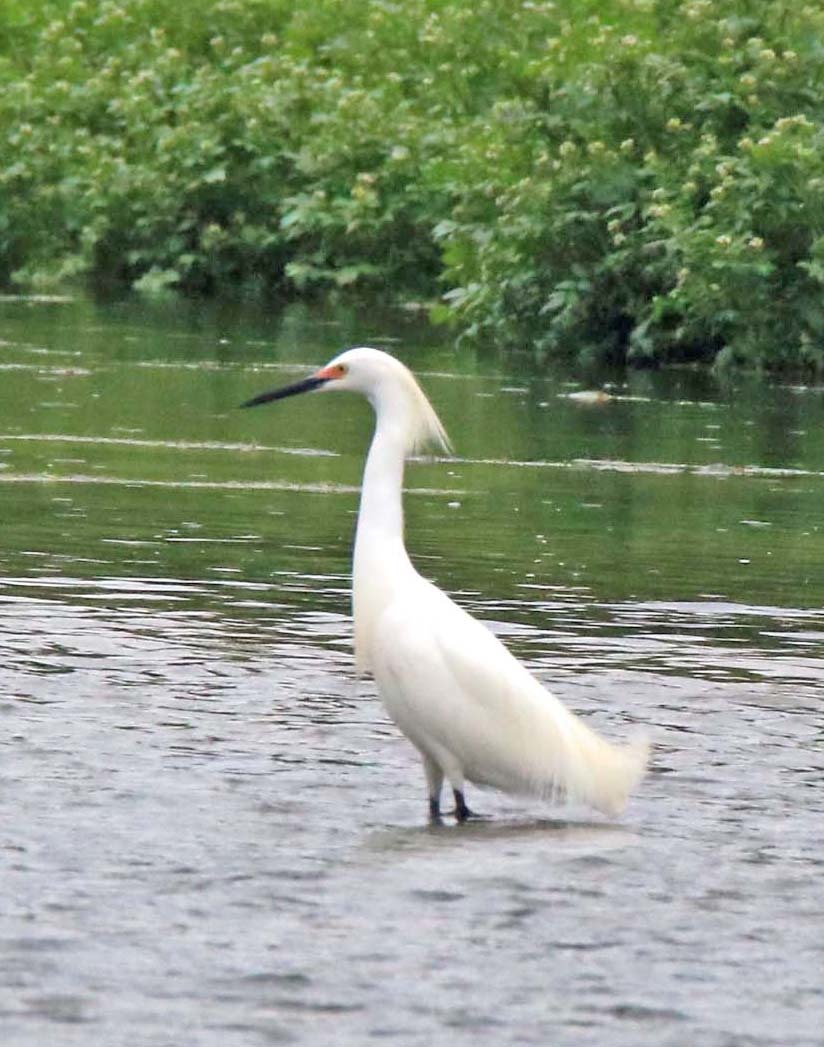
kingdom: Animalia
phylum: Chordata
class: Aves
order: Pelecaniformes
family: Ardeidae
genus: Egretta
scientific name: Egretta thula
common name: Snowy egret
